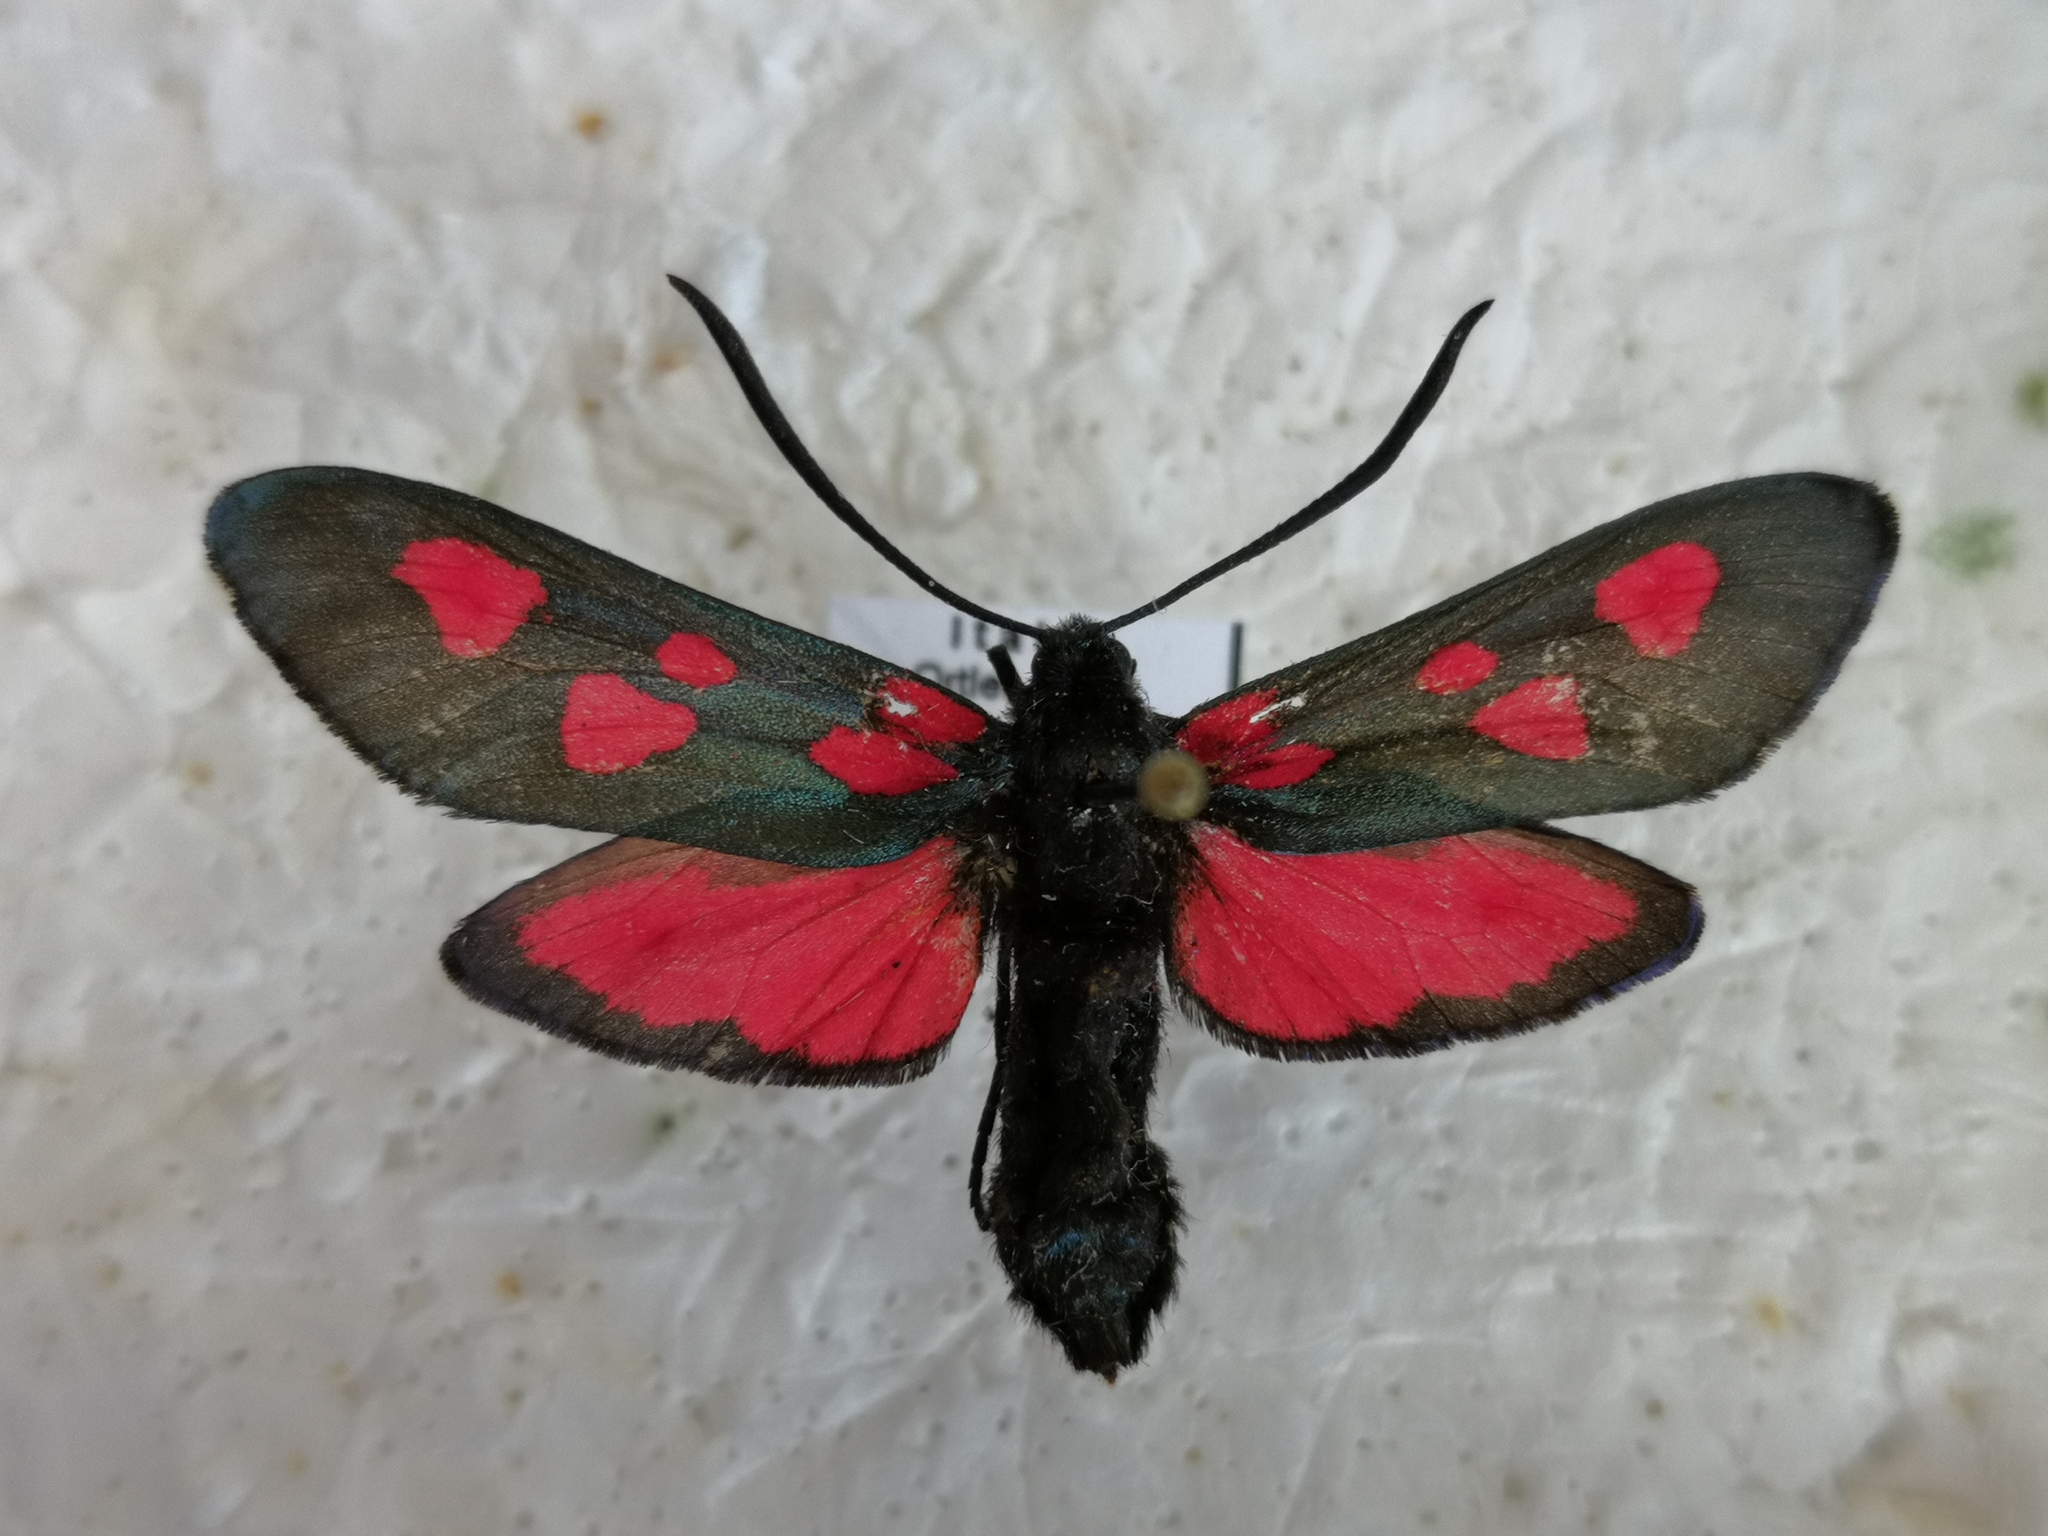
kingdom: Animalia
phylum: Arthropoda
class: Insecta
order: Lepidoptera
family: Zygaenidae
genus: Zygaena
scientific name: Zygaena lonicerae
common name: Narrow-bordered five-spot burnet
